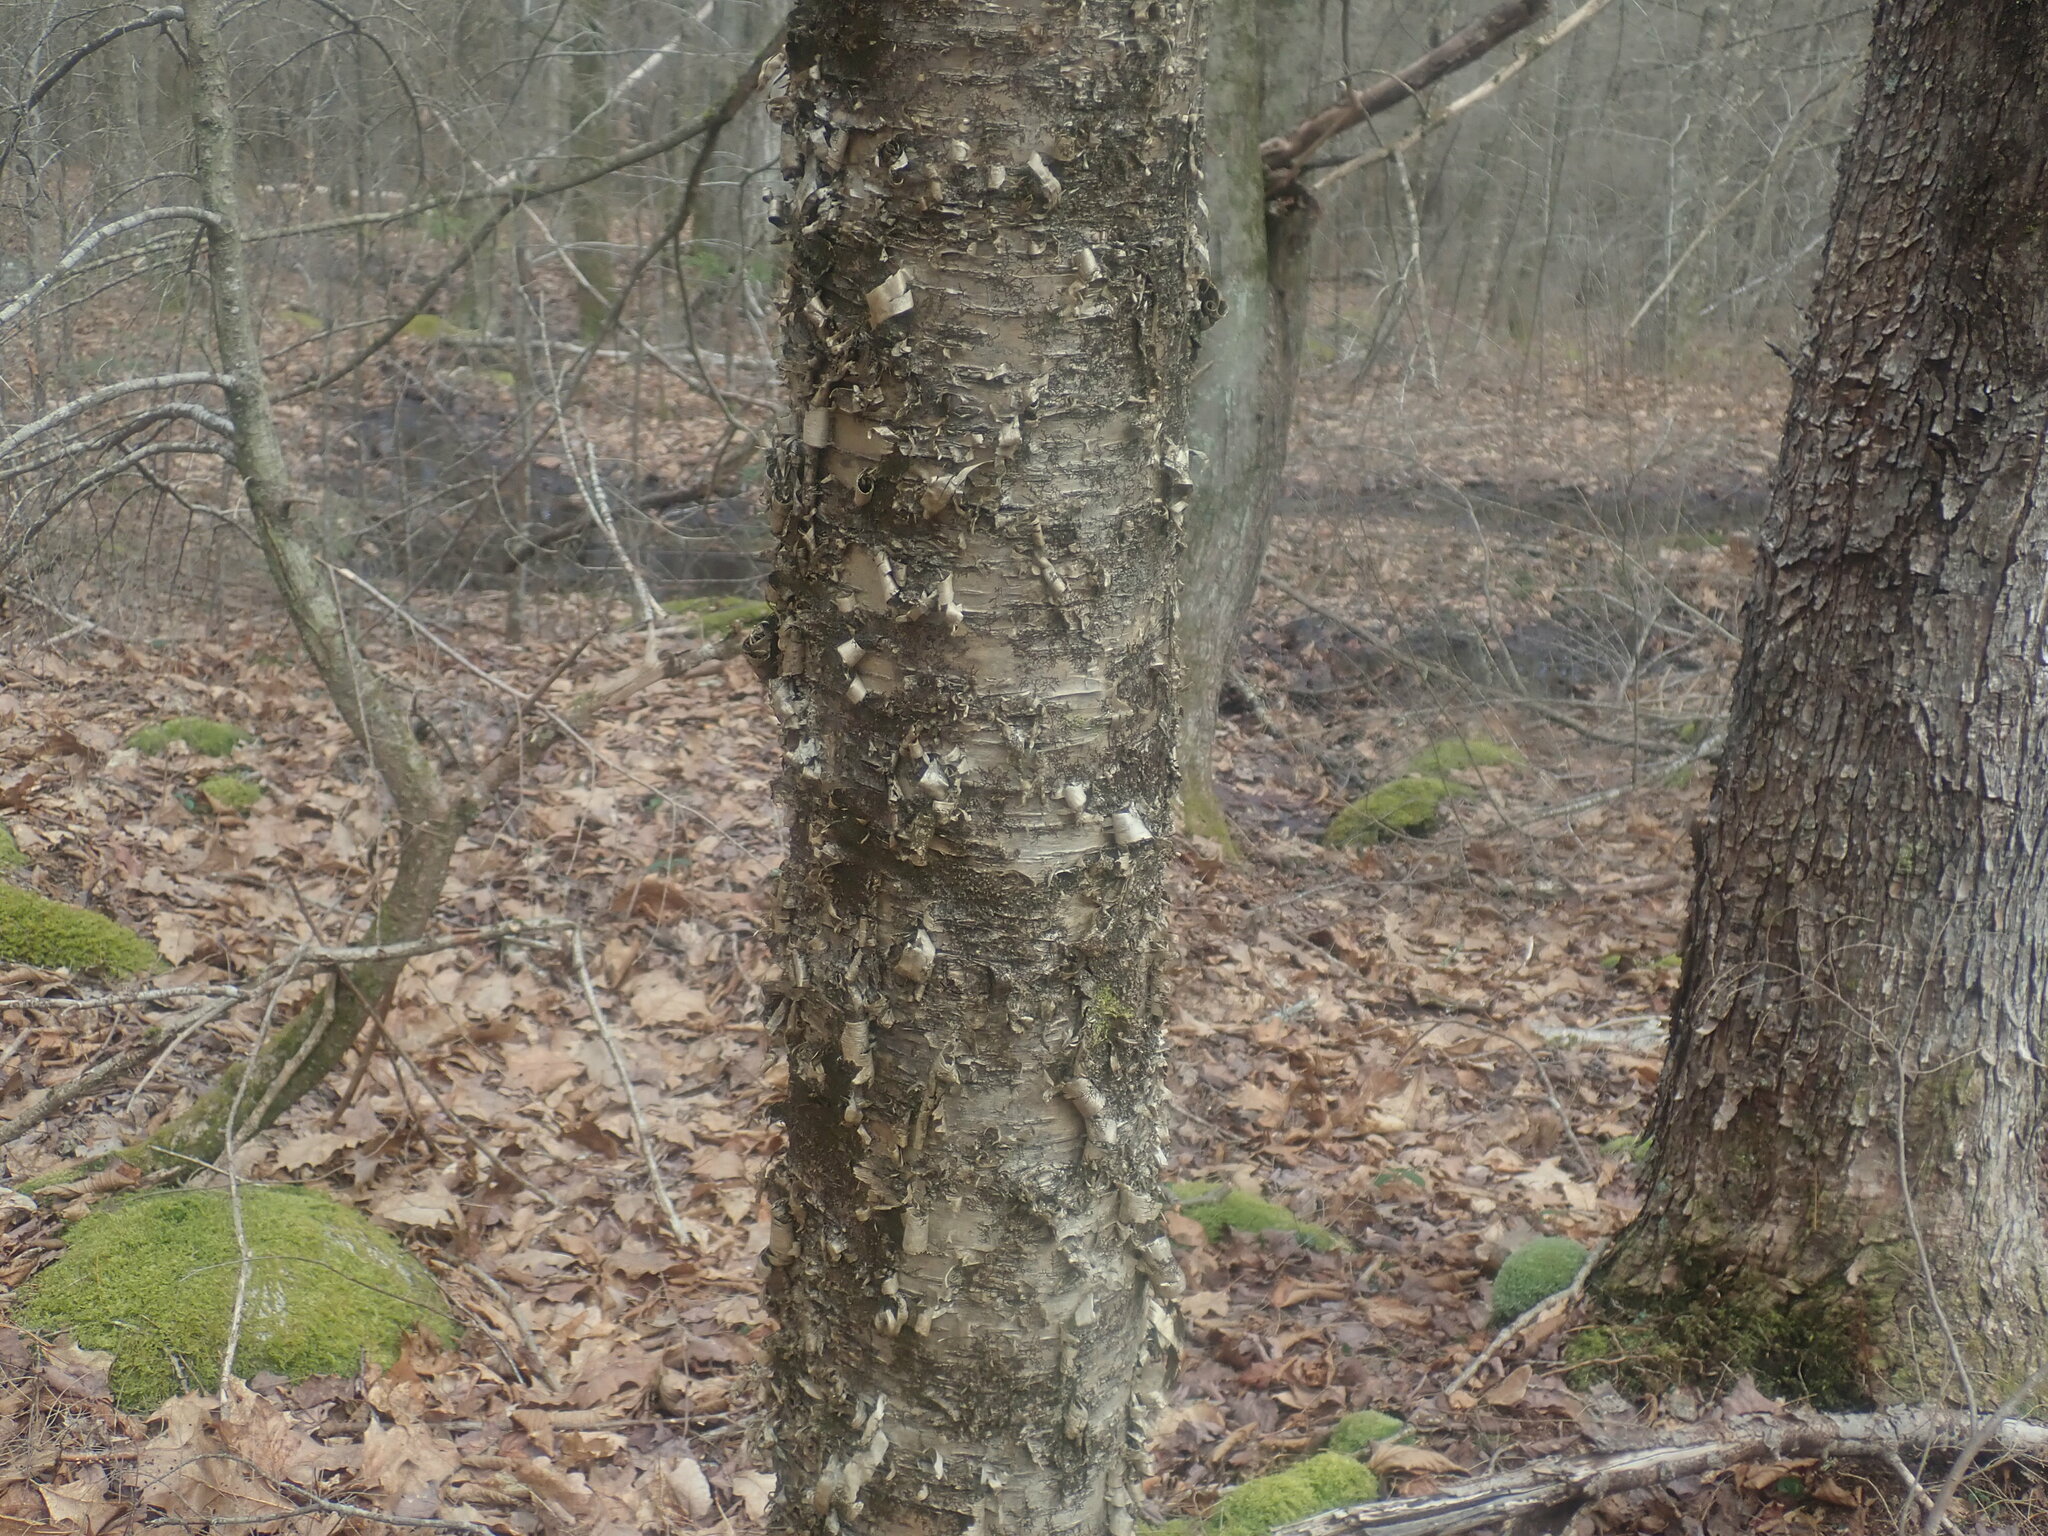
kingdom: Plantae
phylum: Tracheophyta
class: Magnoliopsida
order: Fagales
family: Betulaceae
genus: Betula
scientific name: Betula alleghaniensis
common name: Yellow birch
